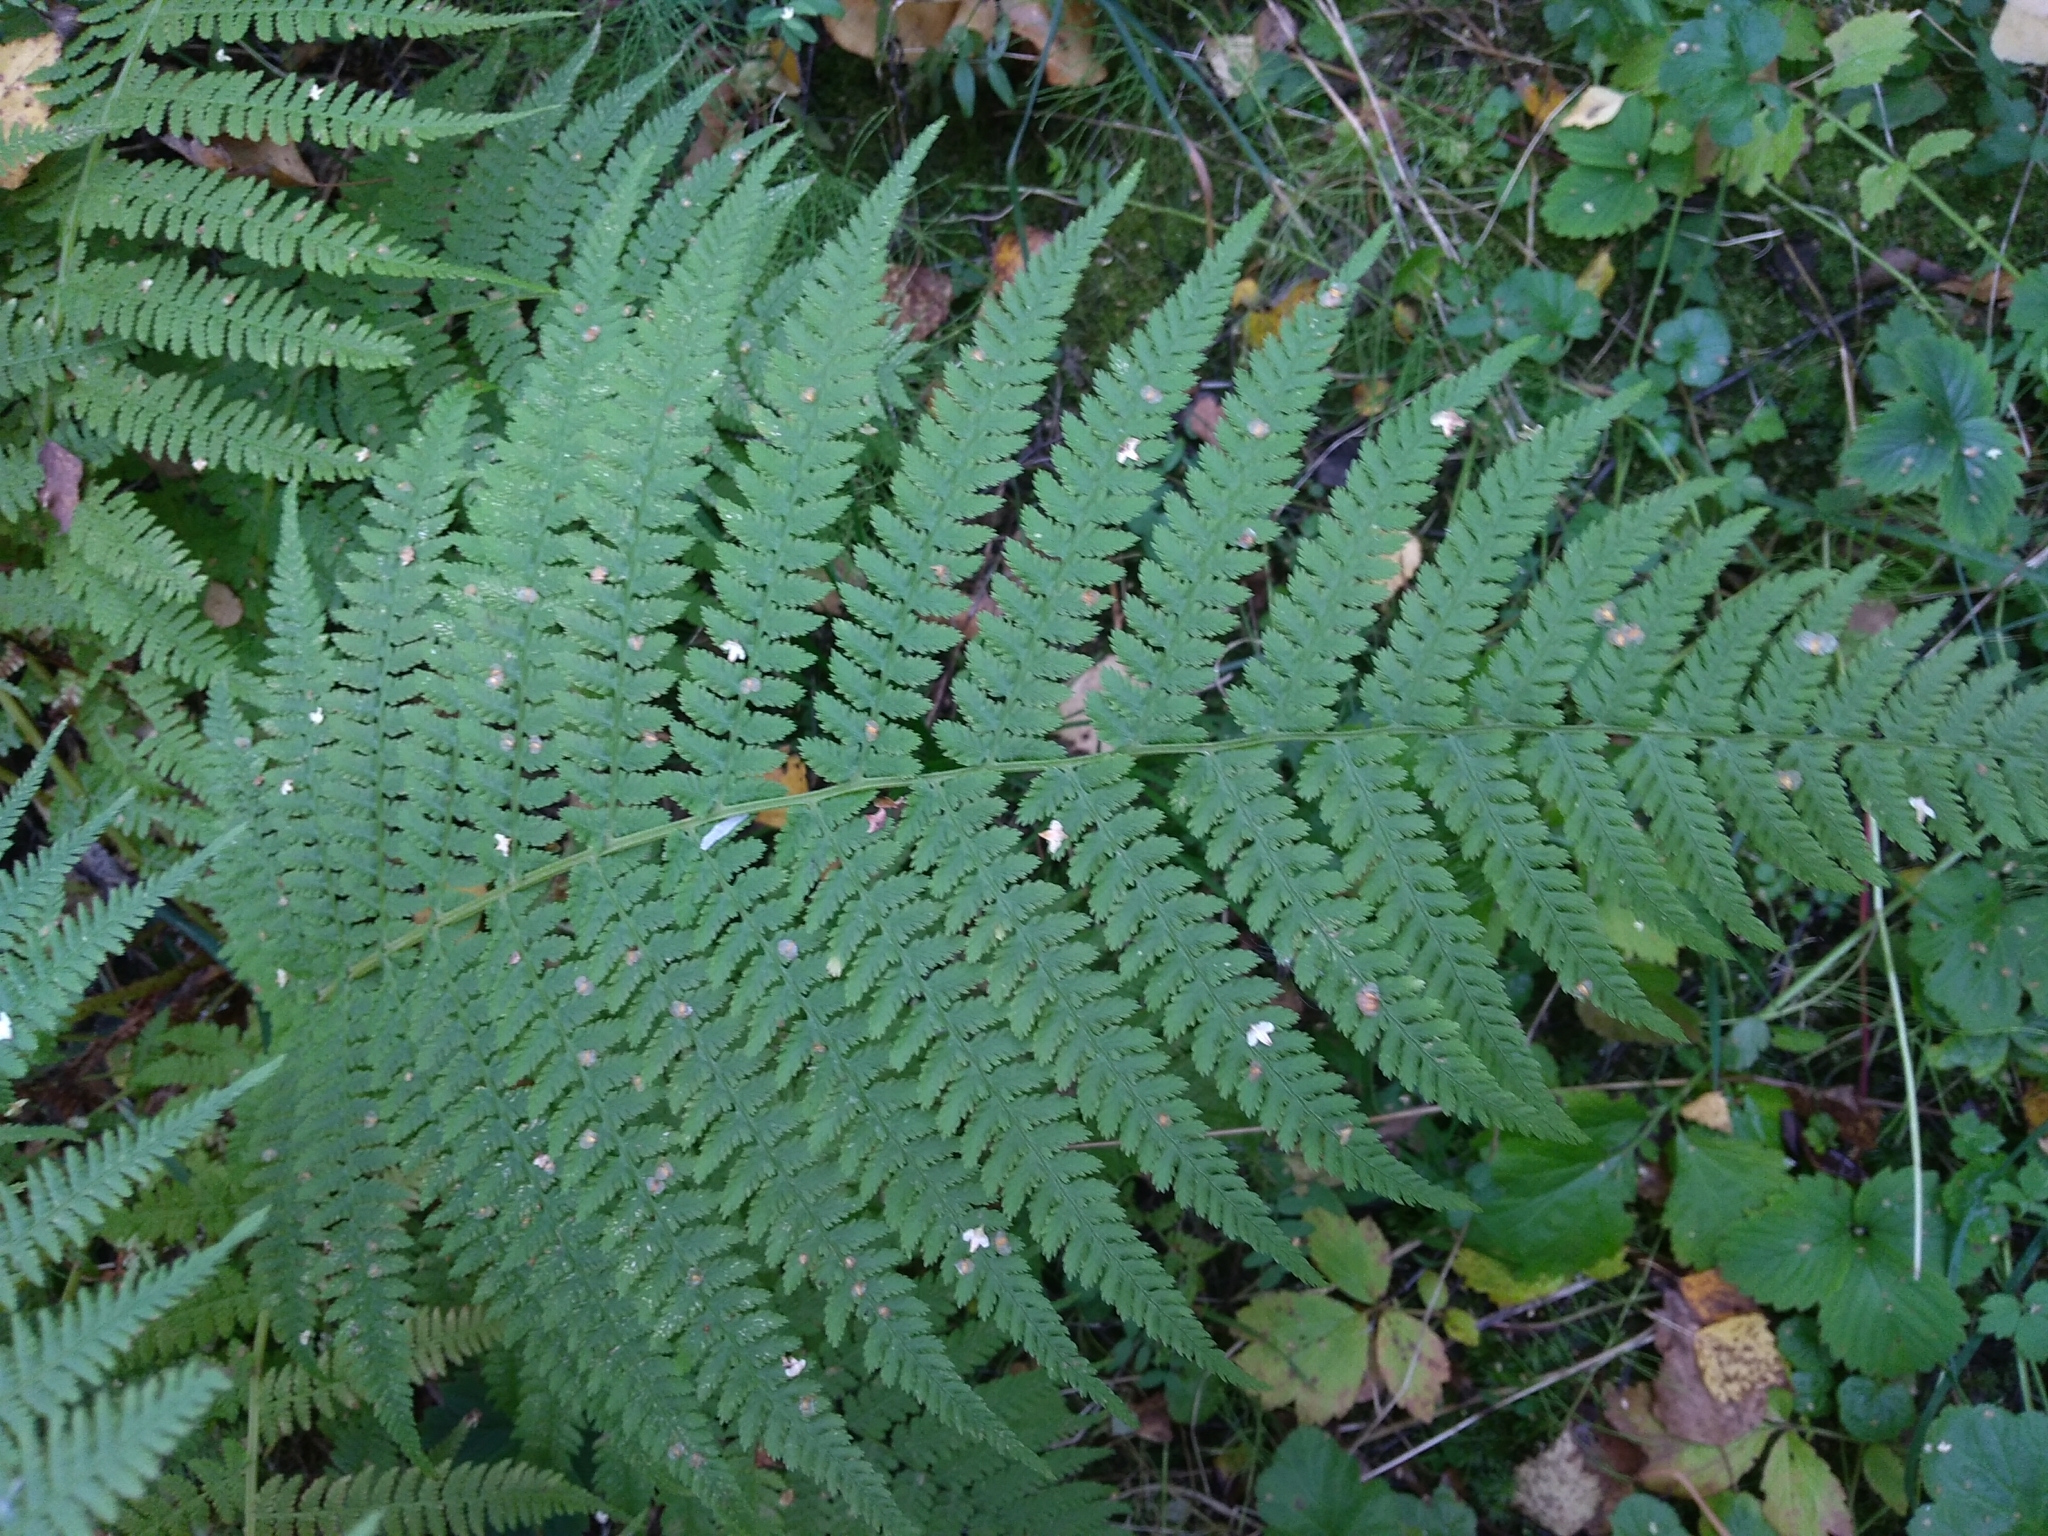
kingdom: Plantae
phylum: Tracheophyta
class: Polypodiopsida
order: Polypodiales
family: Athyriaceae
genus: Athyrium
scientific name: Athyrium filix-femina
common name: Lady fern
